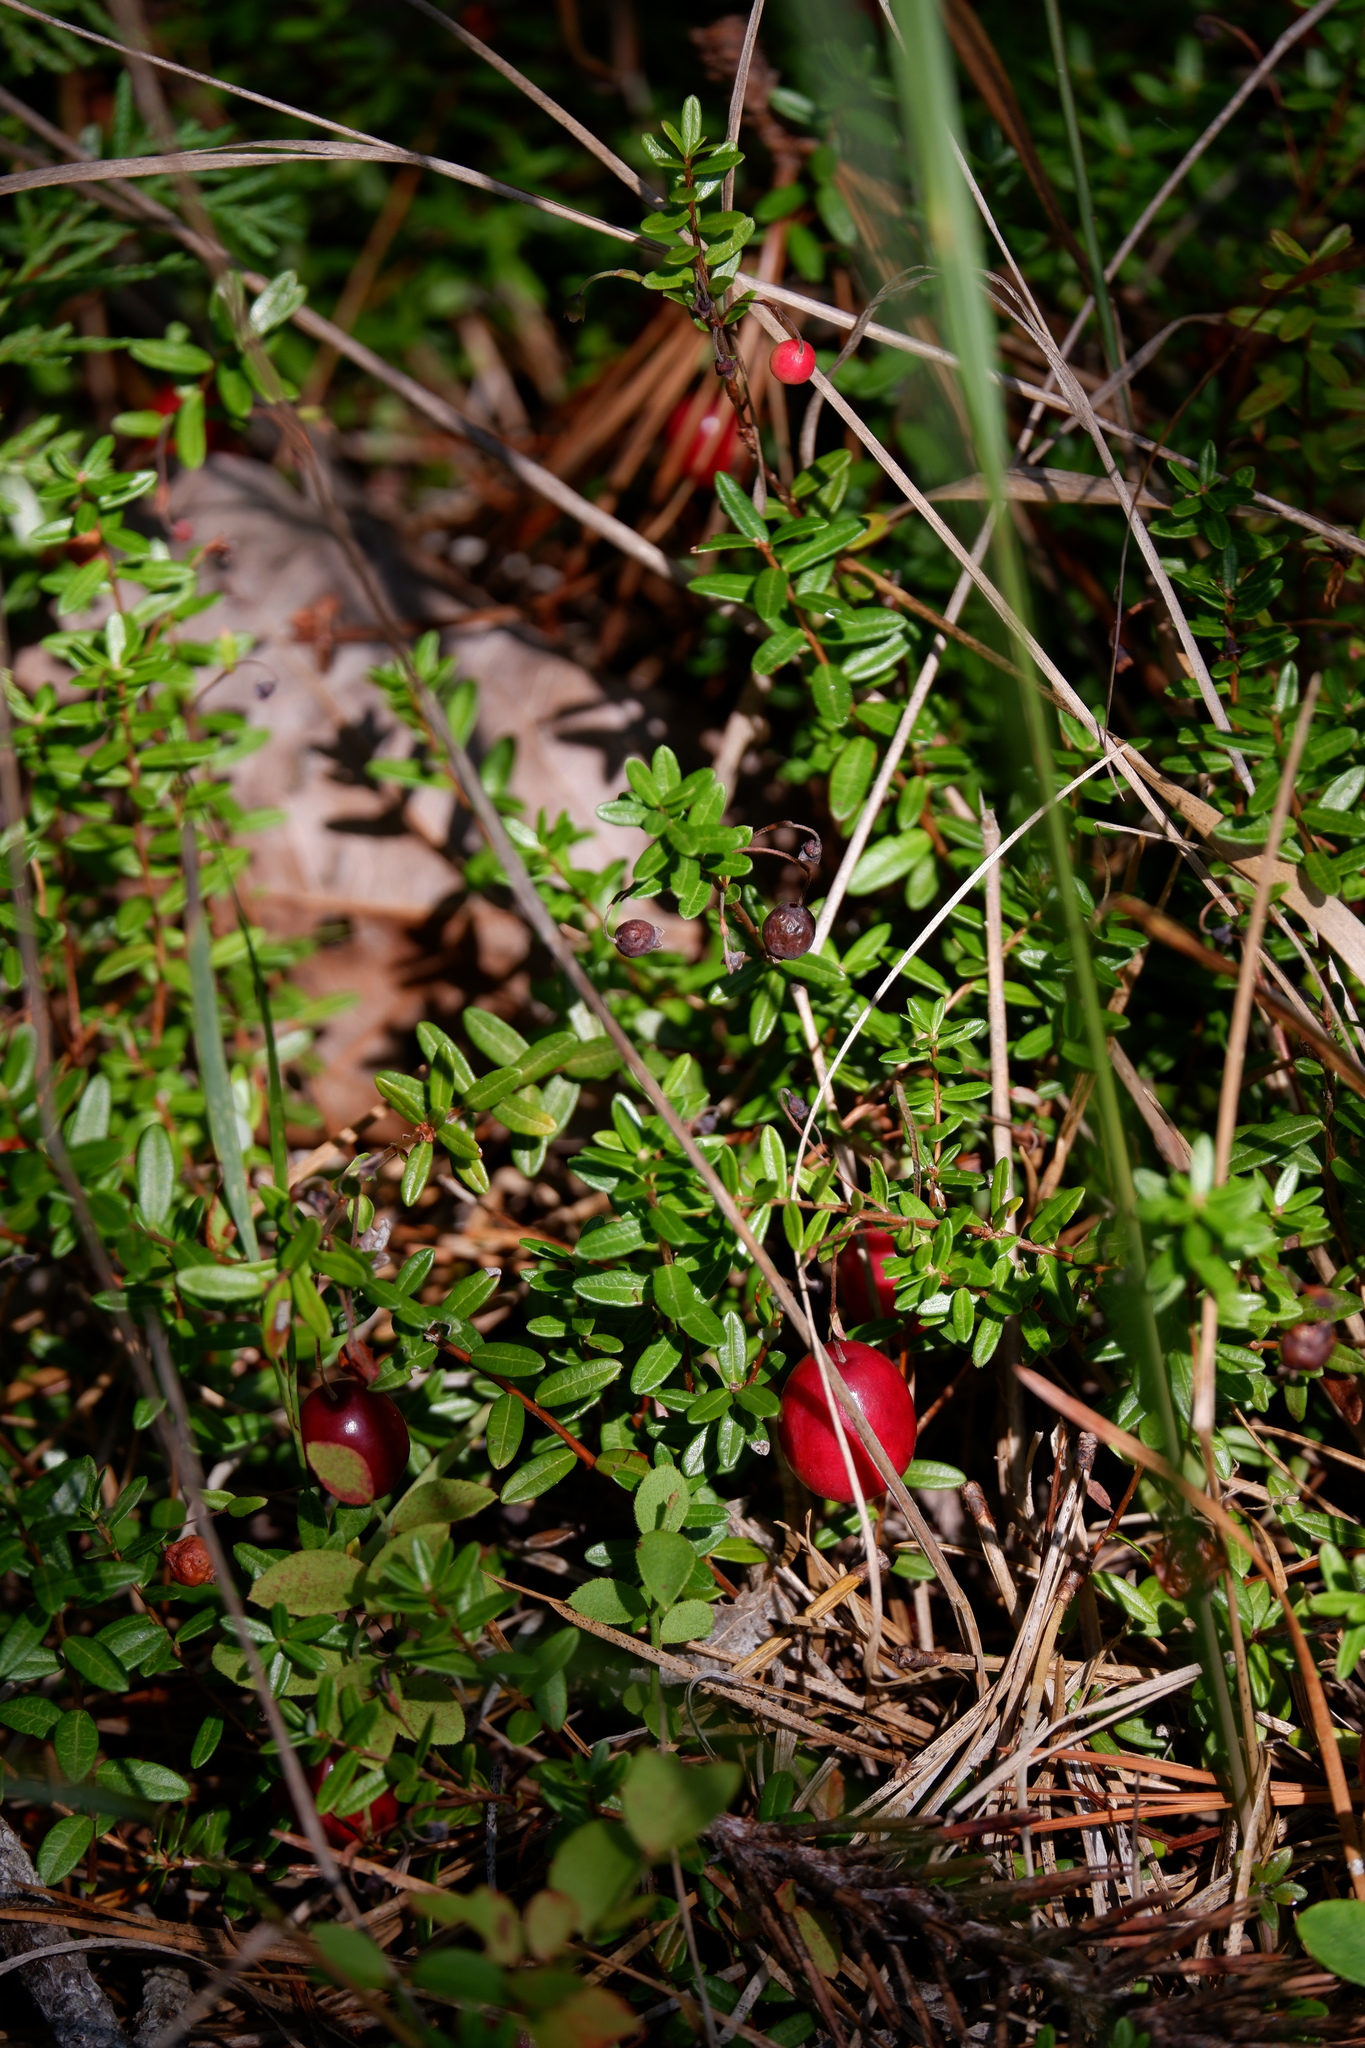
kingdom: Plantae
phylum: Tracheophyta
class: Magnoliopsida
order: Ericales
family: Ericaceae
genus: Vaccinium
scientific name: Vaccinium macrocarpon
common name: American cranberry
